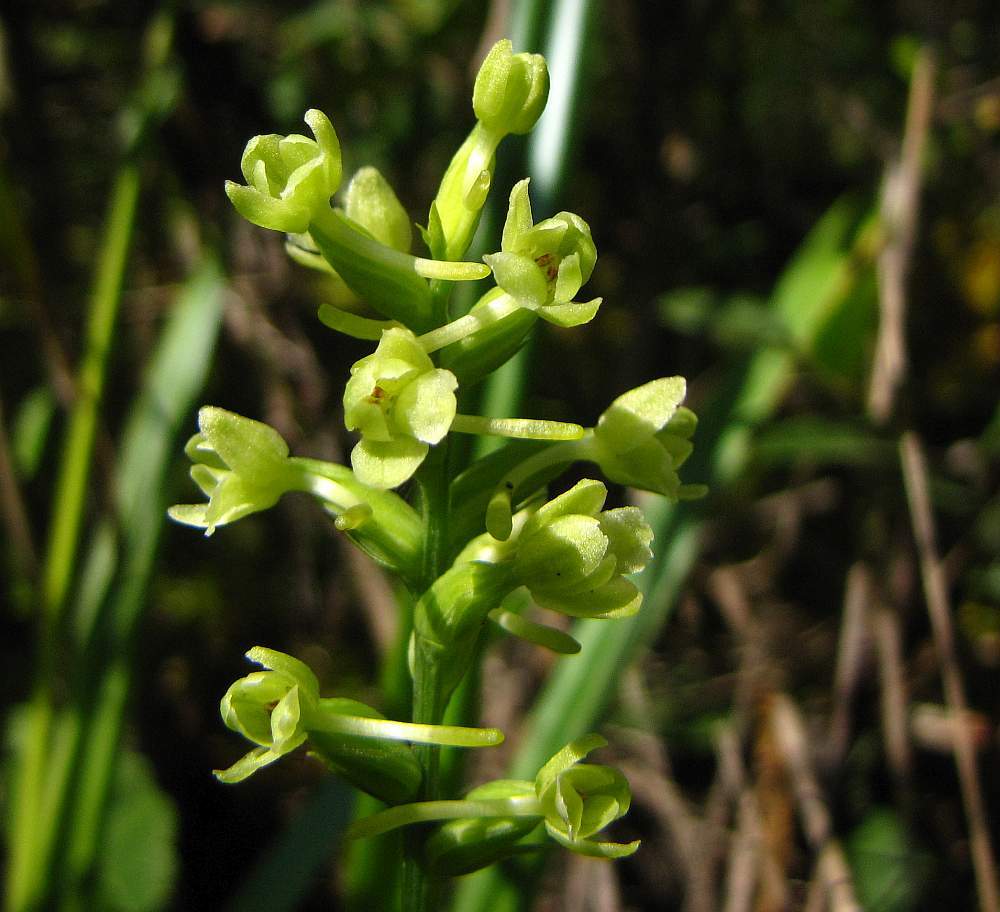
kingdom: Plantae
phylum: Tracheophyta
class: Liliopsida
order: Asparagales
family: Orchidaceae
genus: Platanthera
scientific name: Platanthera clavellata
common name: Club-spur orchid
